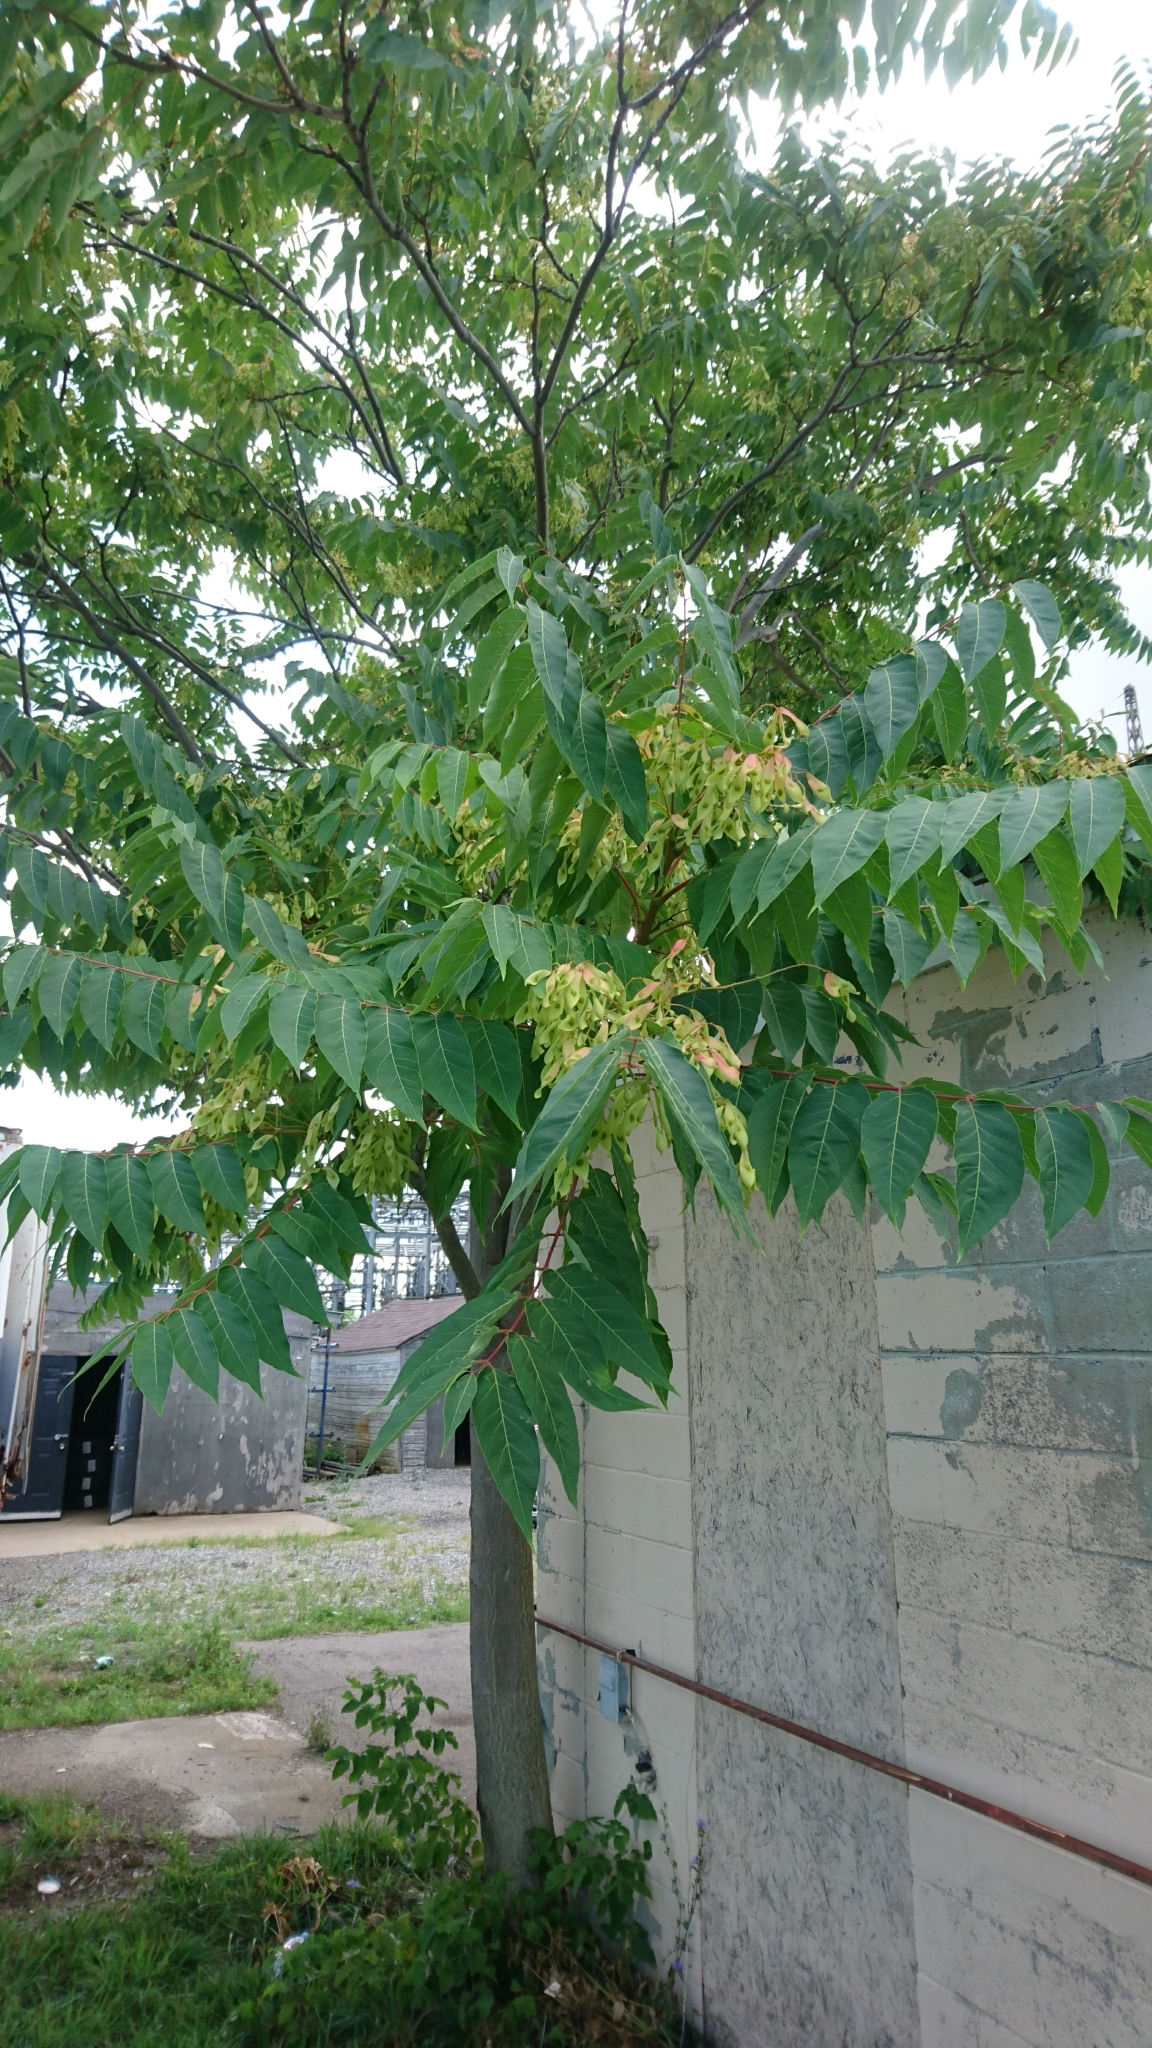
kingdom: Plantae
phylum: Tracheophyta
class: Magnoliopsida
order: Sapindales
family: Simaroubaceae
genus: Ailanthus
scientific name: Ailanthus altissima
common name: Tree-of-heaven
